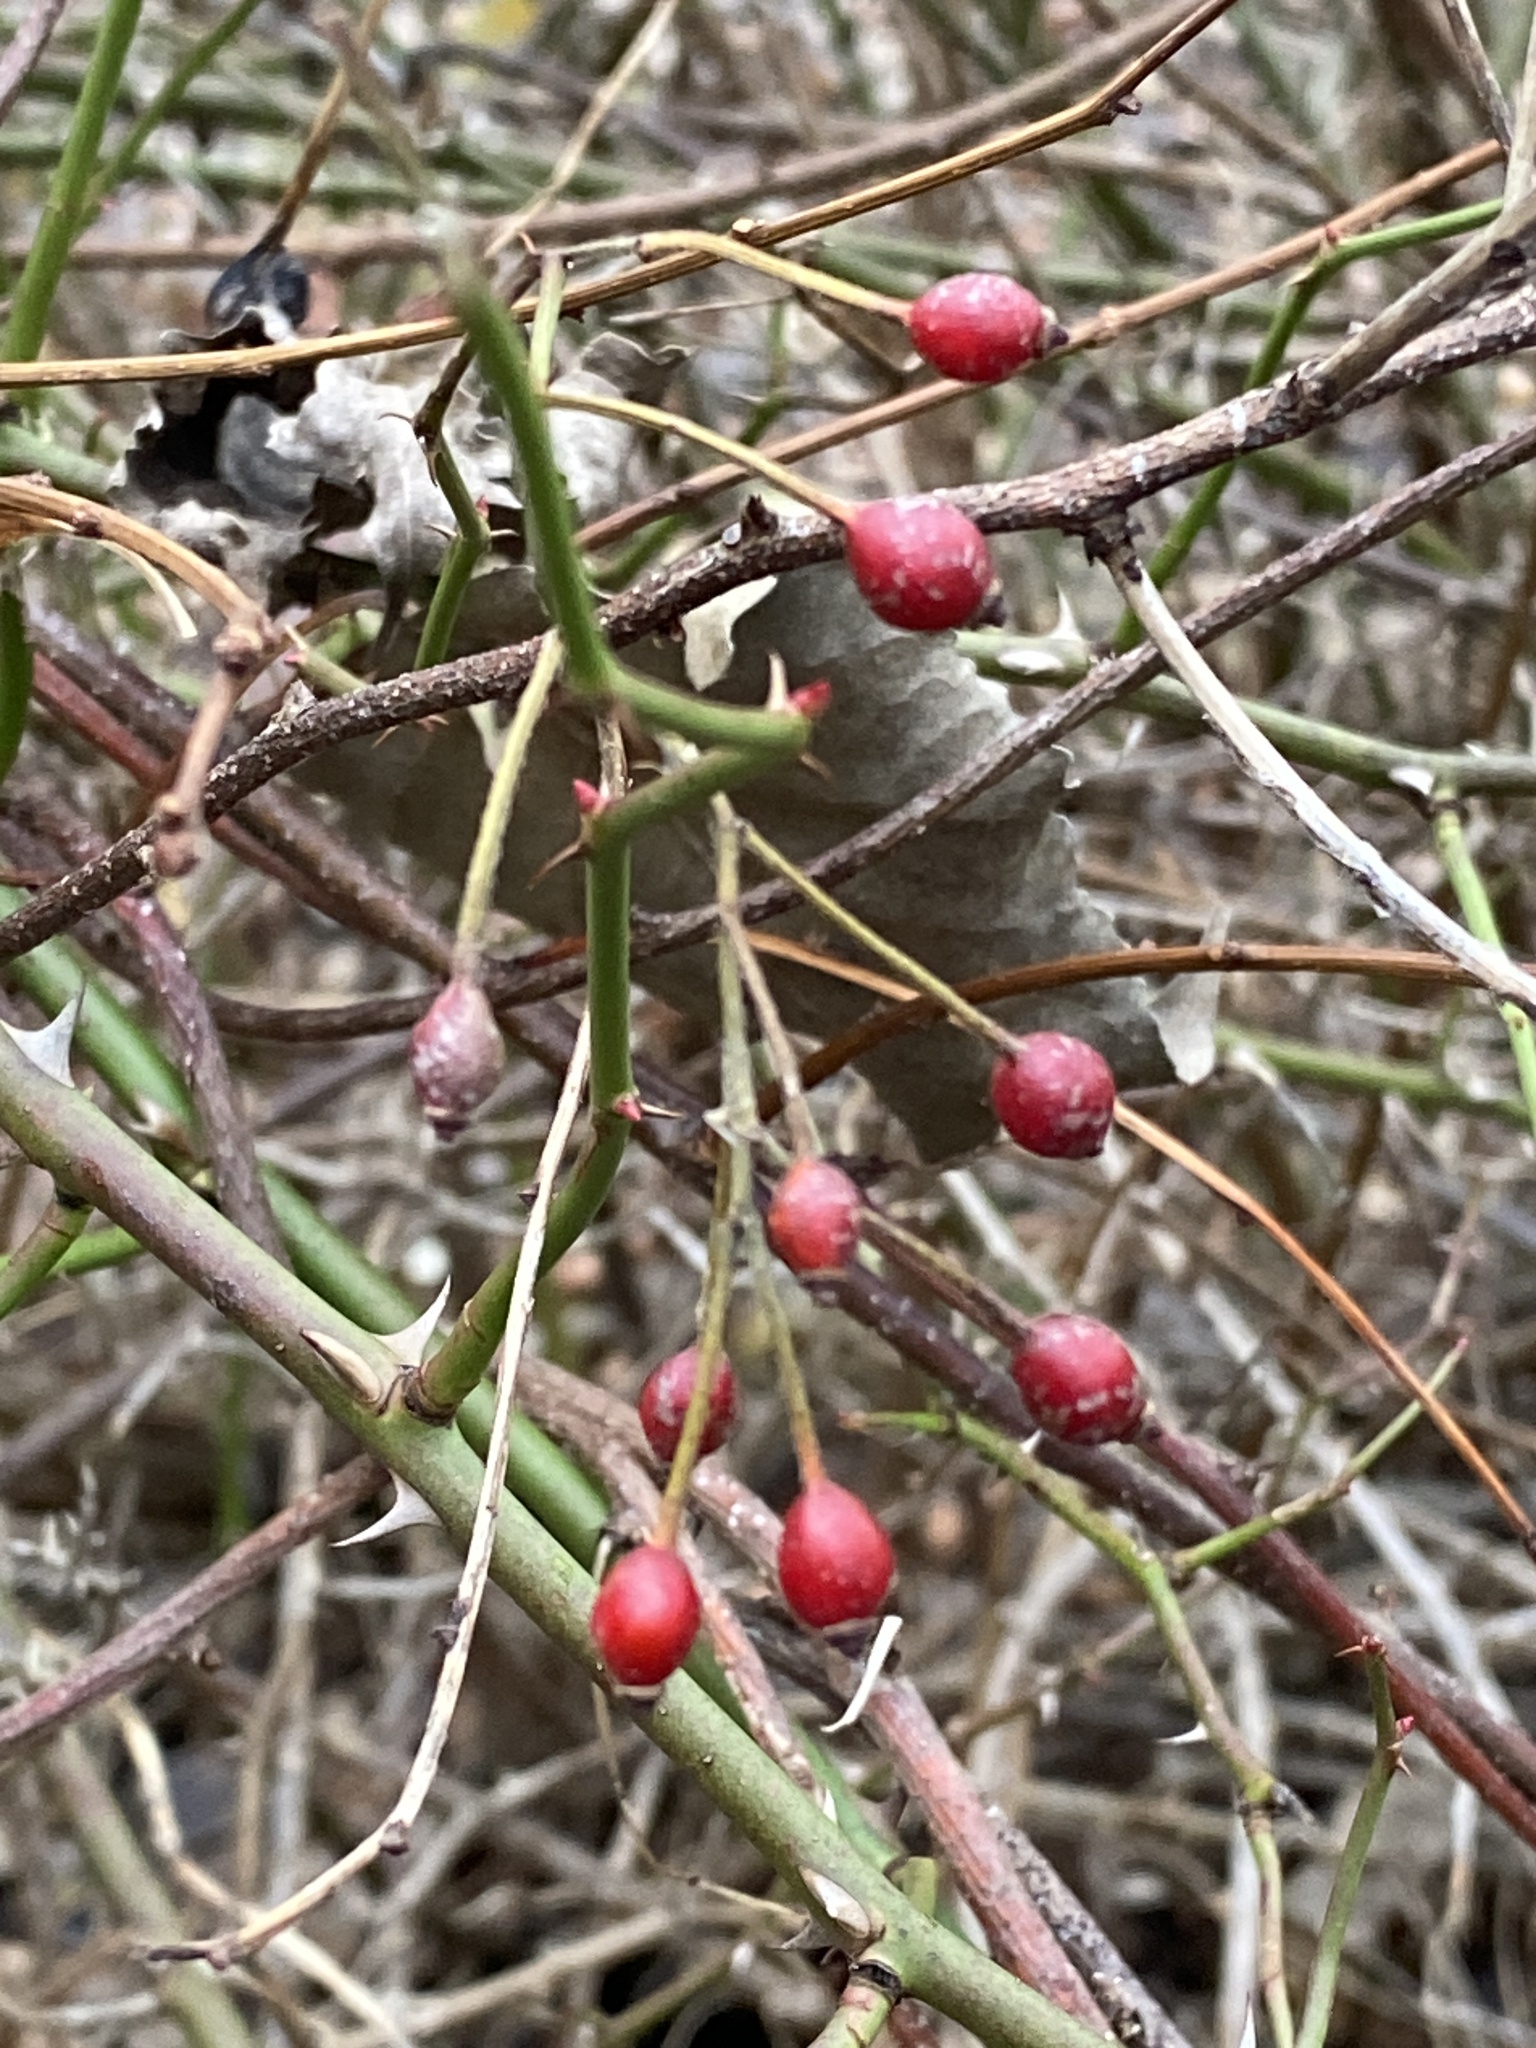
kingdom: Plantae
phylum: Tracheophyta
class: Magnoliopsida
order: Rosales
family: Rosaceae
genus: Rosa
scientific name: Rosa multiflora
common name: Multiflora rose
